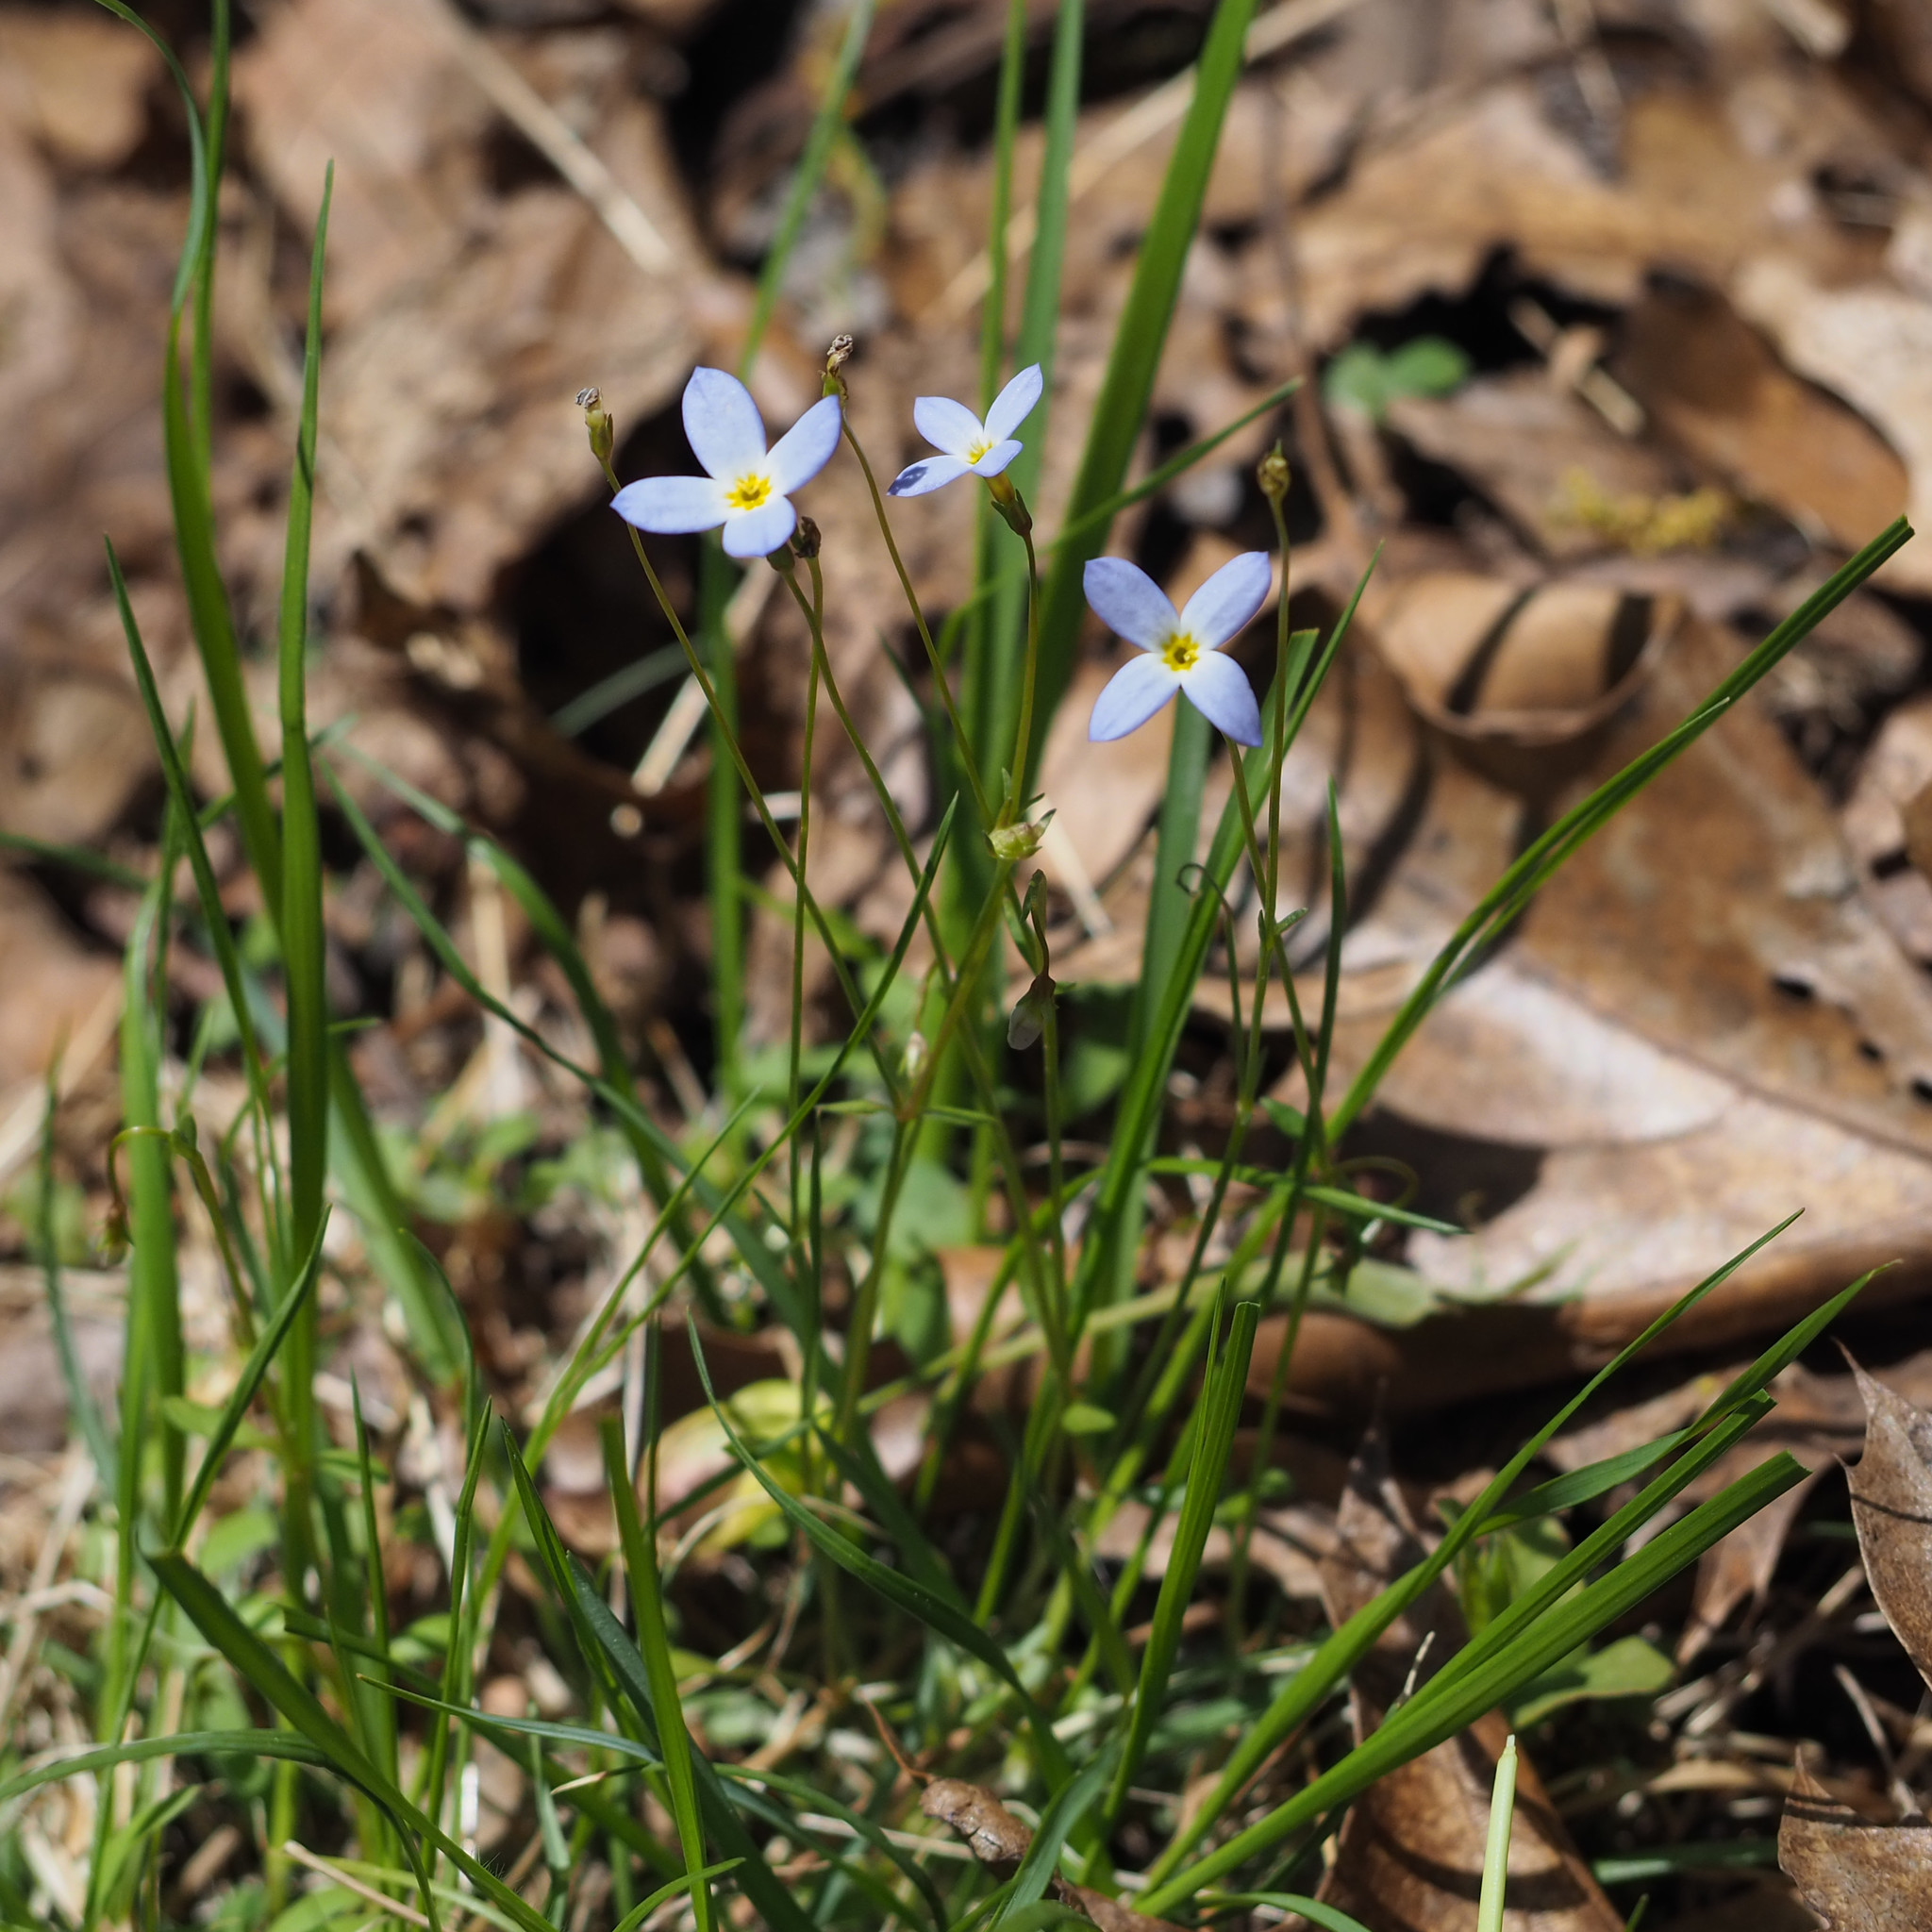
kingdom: Plantae
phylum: Tracheophyta
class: Magnoliopsida
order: Gentianales
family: Rubiaceae
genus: Houstonia
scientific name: Houstonia caerulea
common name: Bluets
